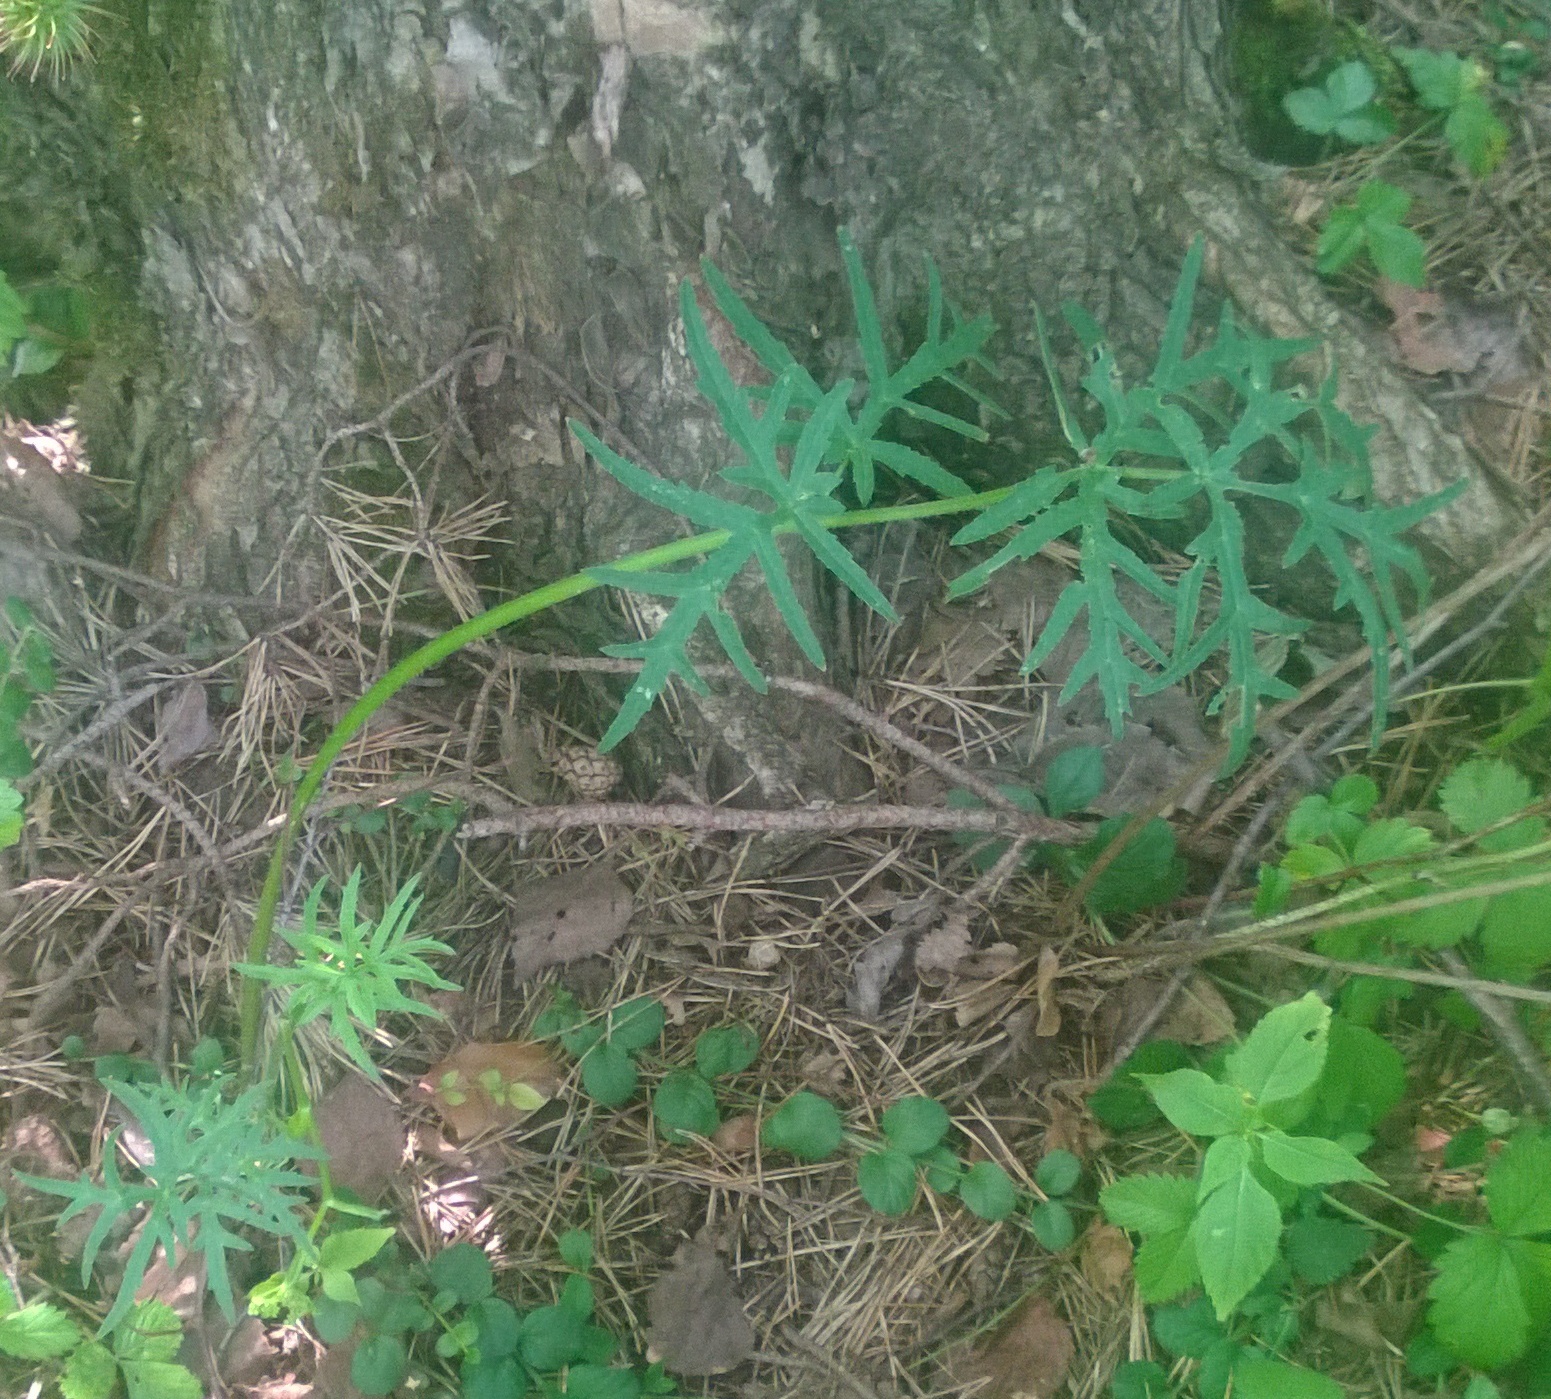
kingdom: Plantae
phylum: Tracheophyta
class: Magnoliopsida
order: Apiales
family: Apiaceae
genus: Heracleum
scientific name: Heracleum sphondylium
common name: Hogweed
